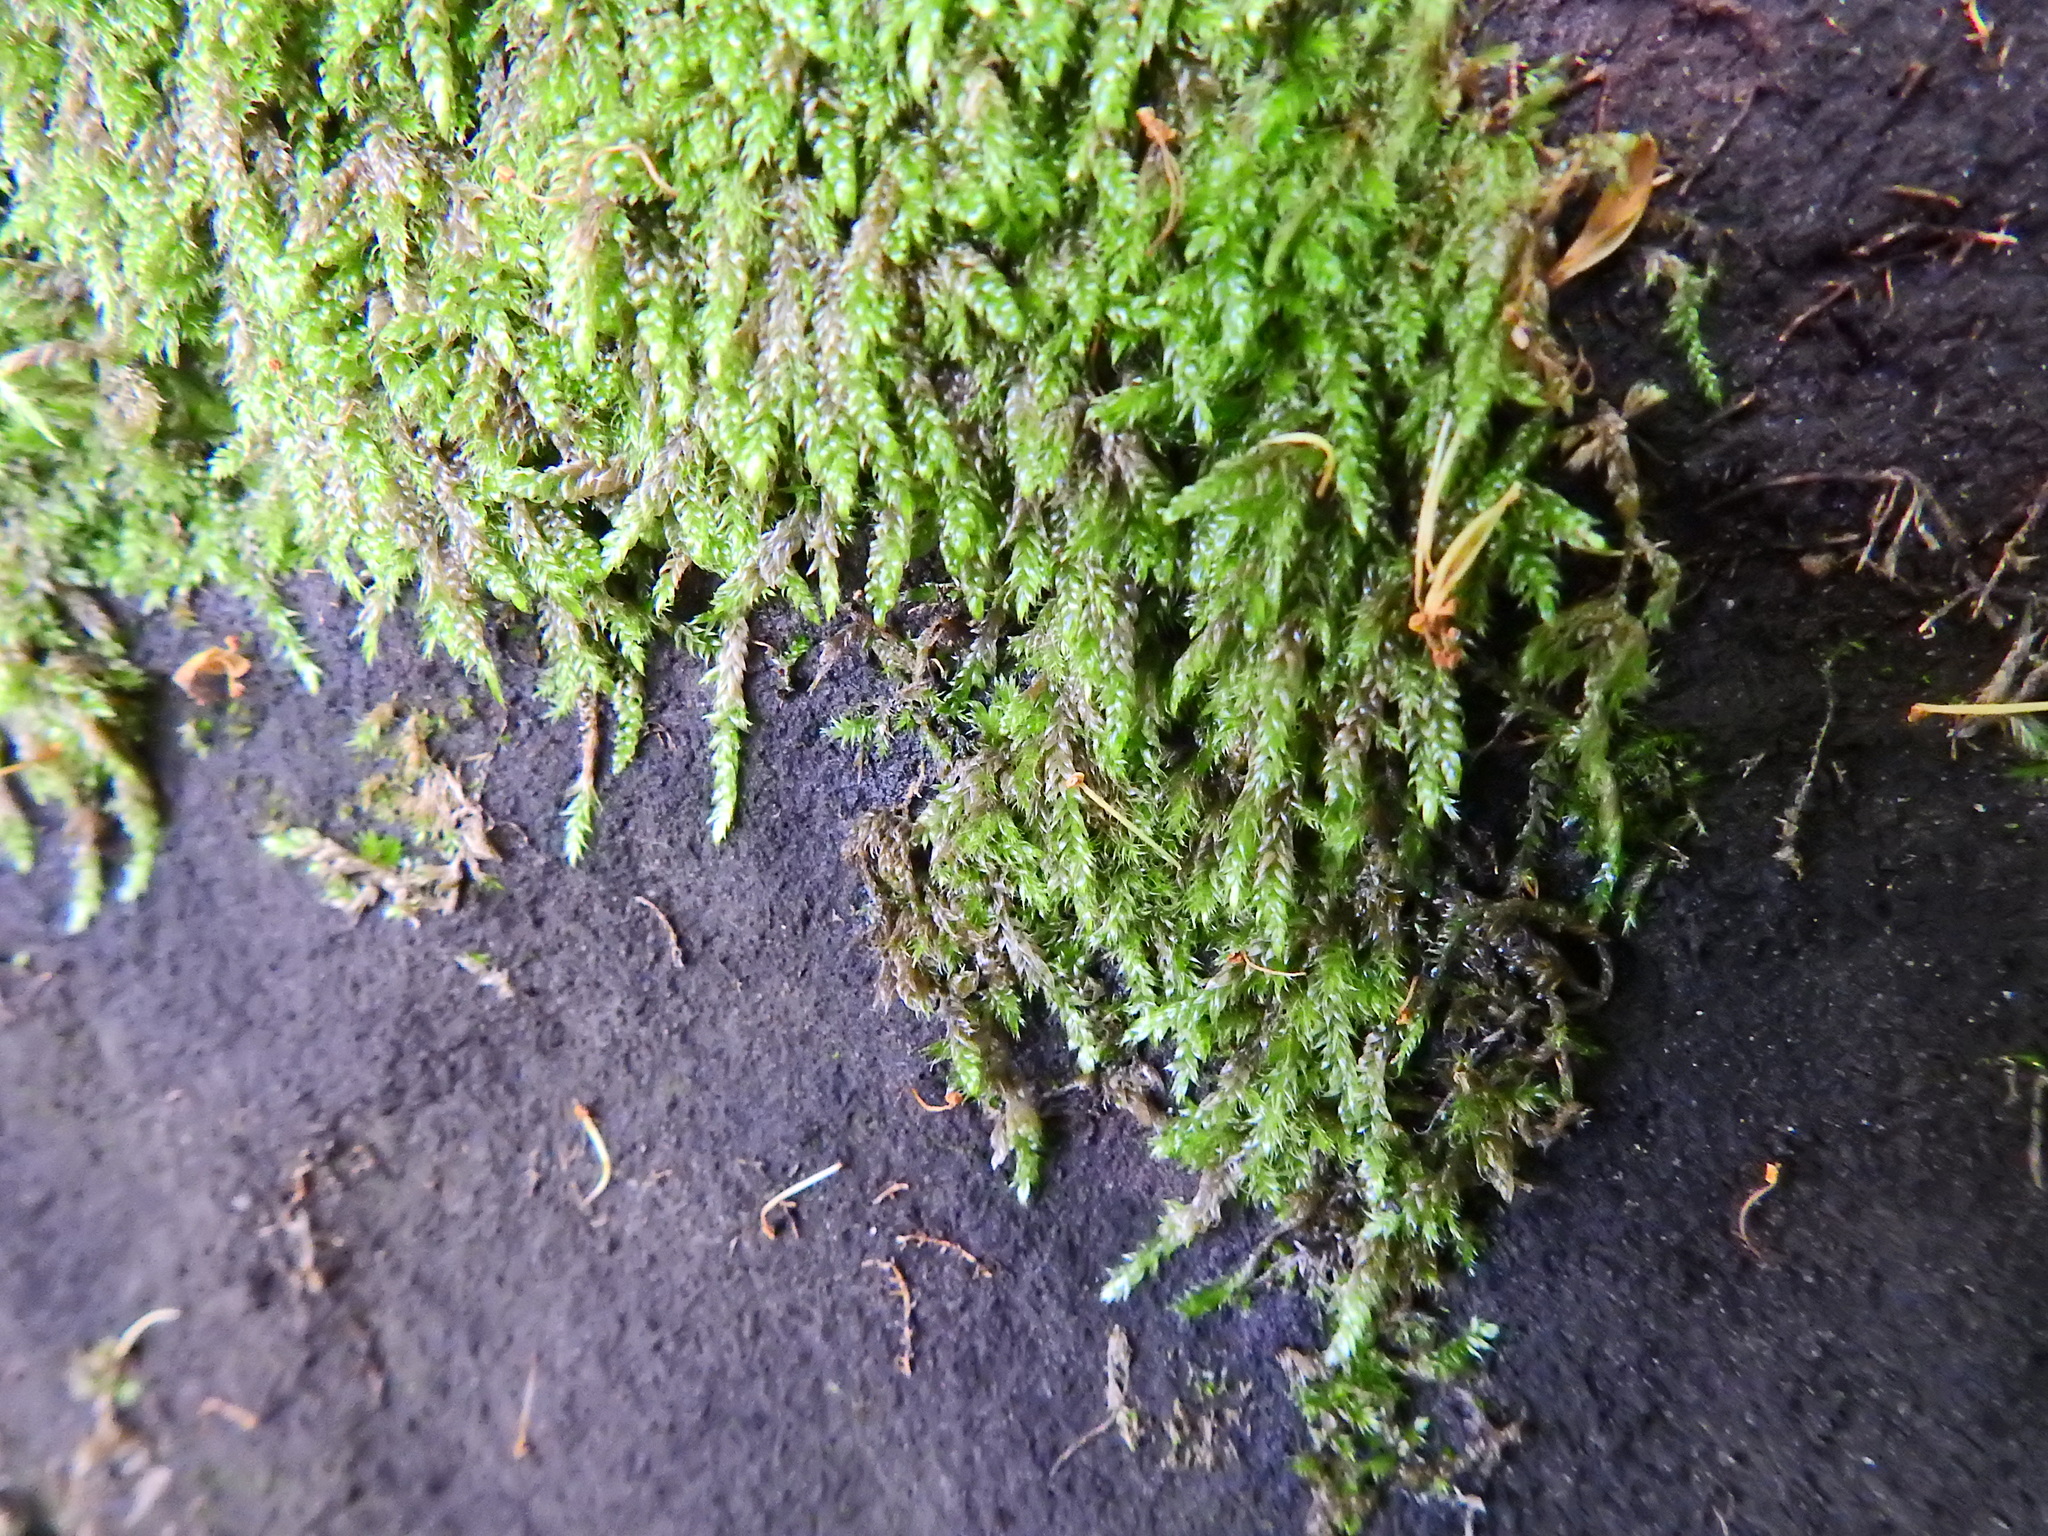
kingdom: Plantae
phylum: Bryophyta
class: Bryopsida
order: Hypnales
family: Hypnaceae
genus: Hypnum
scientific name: Hypnum cupressiforme
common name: Cypress-leaved plait-moss
